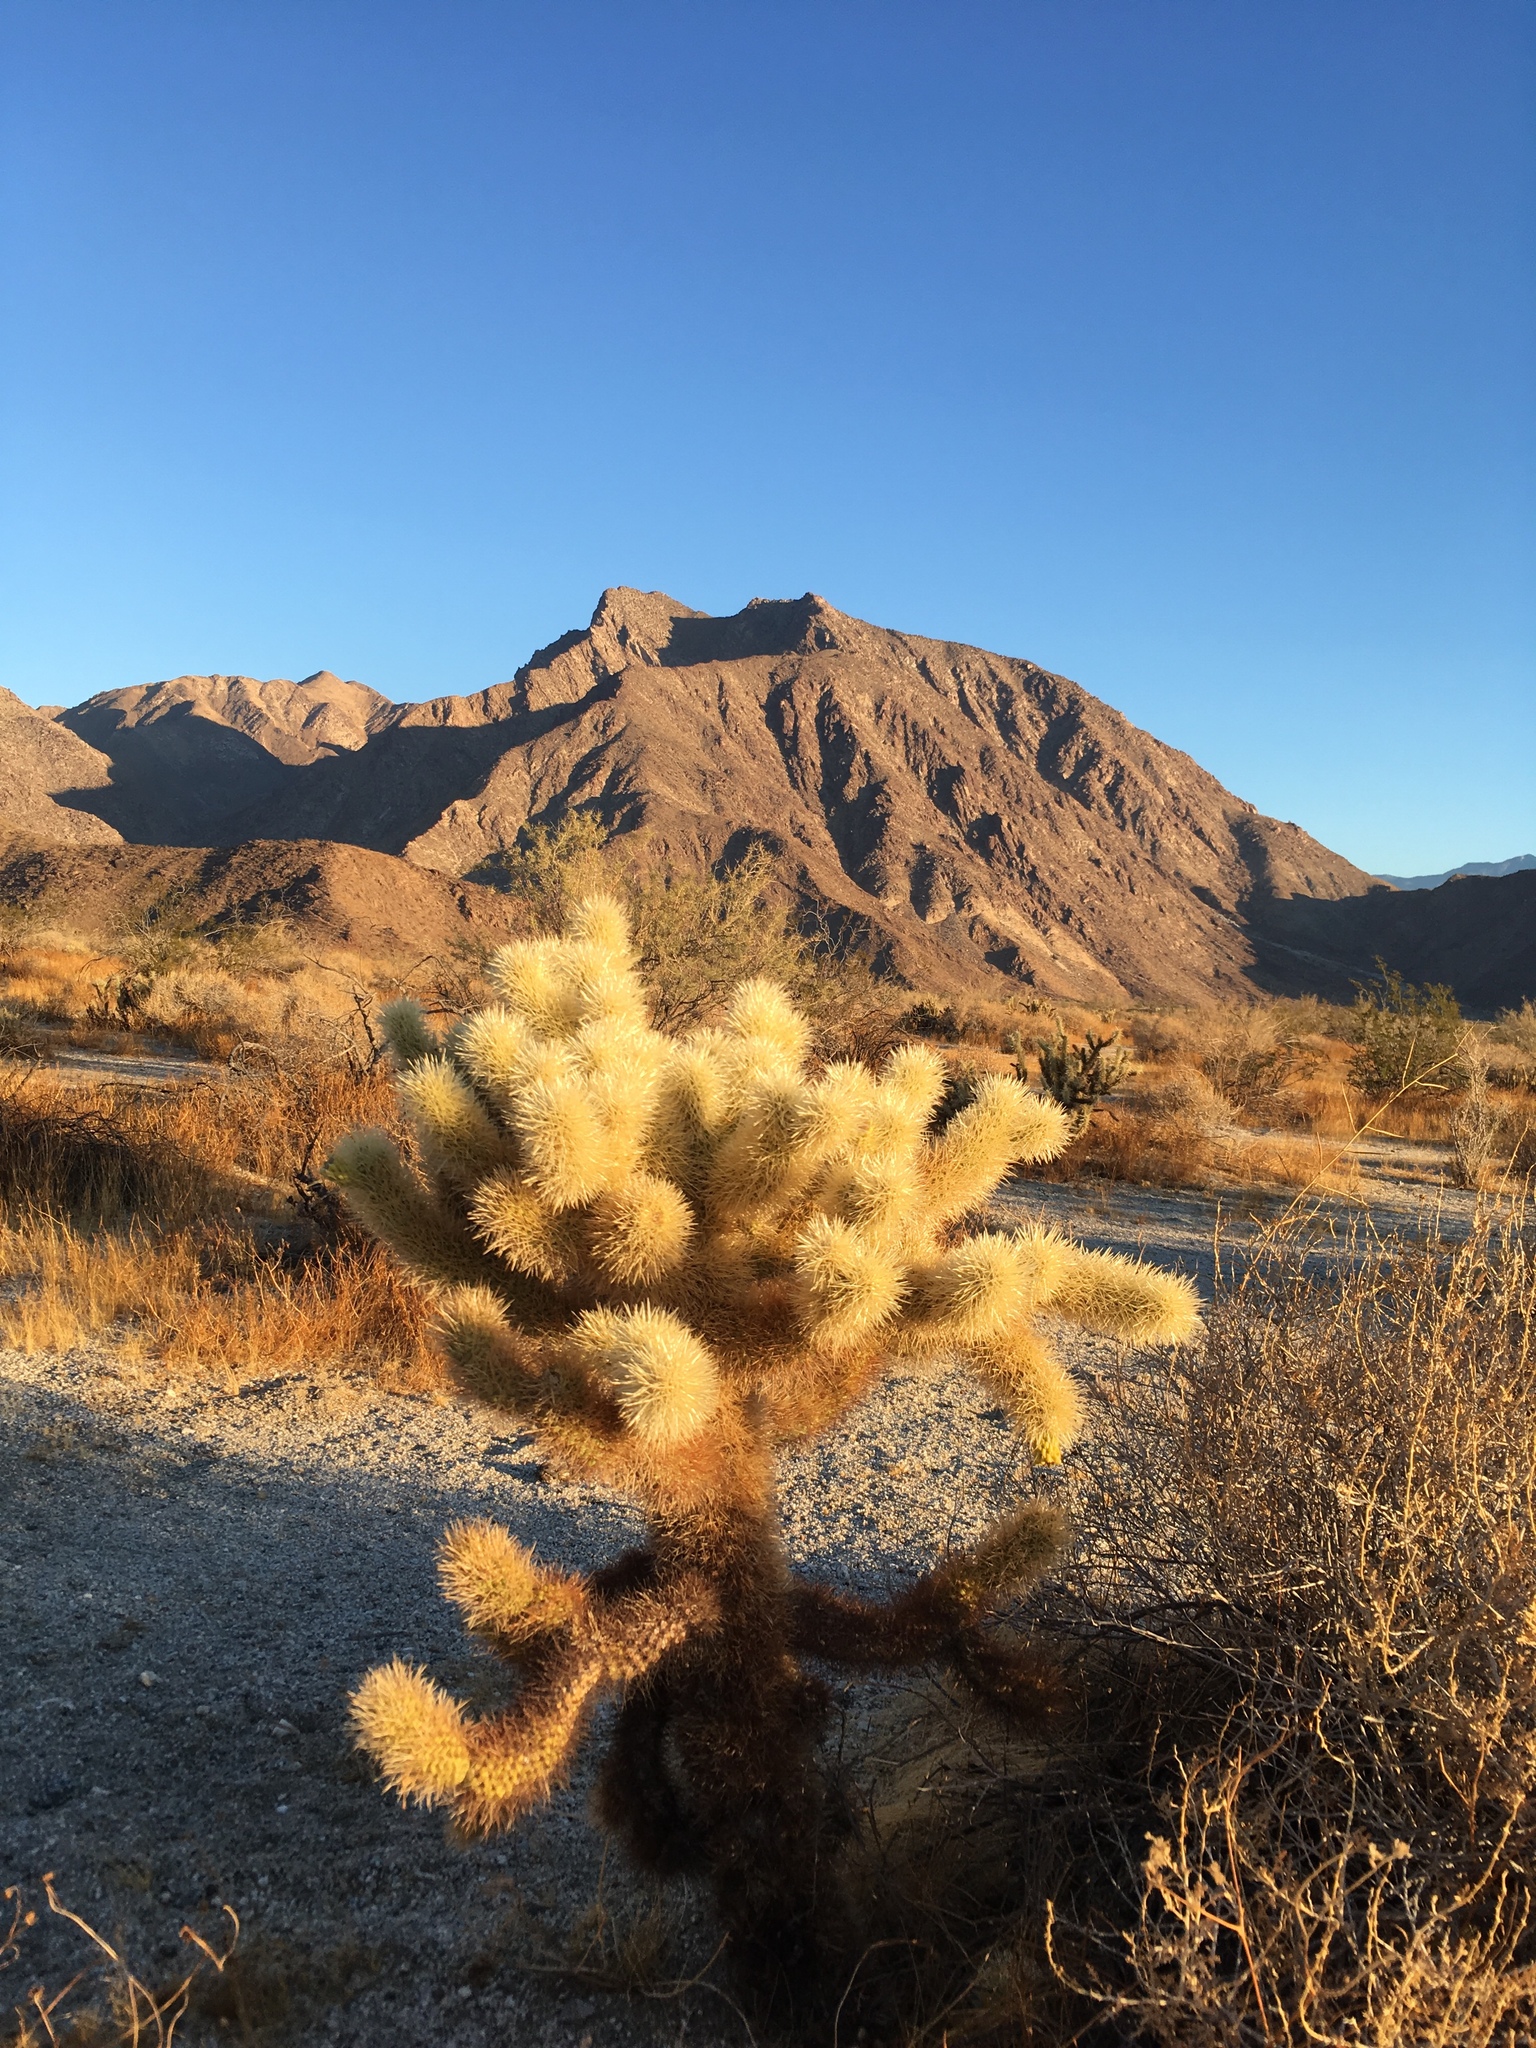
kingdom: Plantae
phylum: Tracheophyta
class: Magnoliopsida
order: Caryophyllales
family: Cactaceae
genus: Cylindropuntia
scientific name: Cylindropuntia fosbergii
